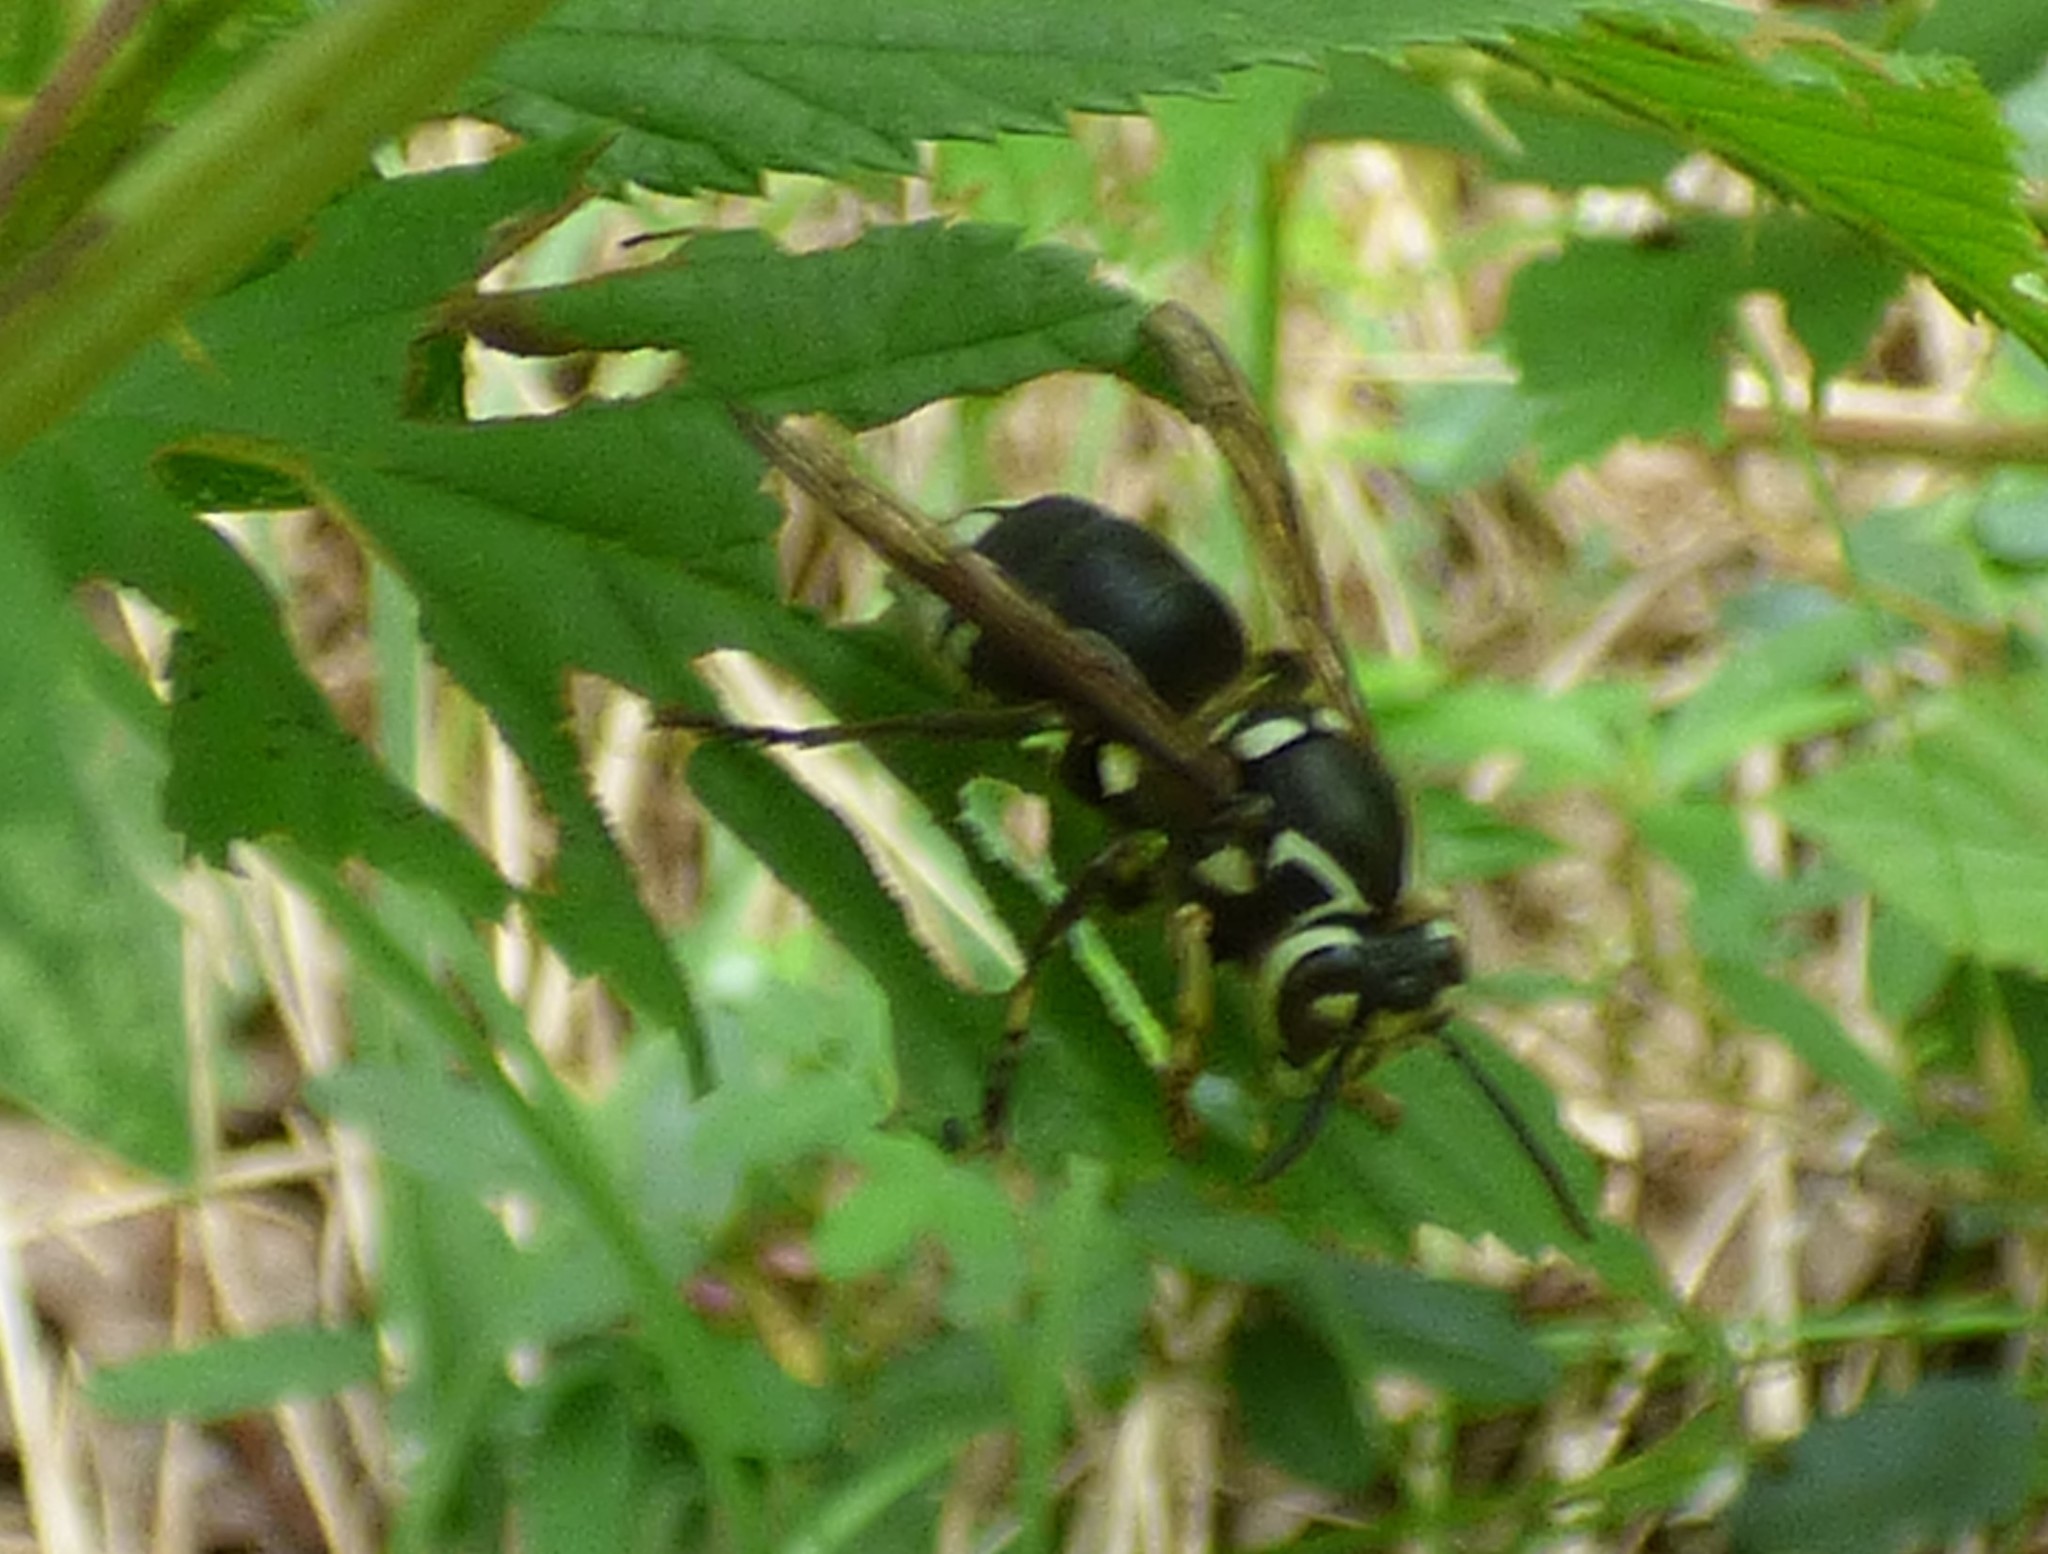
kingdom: Animalia
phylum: Arthropoda
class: Insecta
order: Hymenoptera
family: Vespidae
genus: Dolichovespula
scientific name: Dolichovespula maculata
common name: Bald-faced hornet
